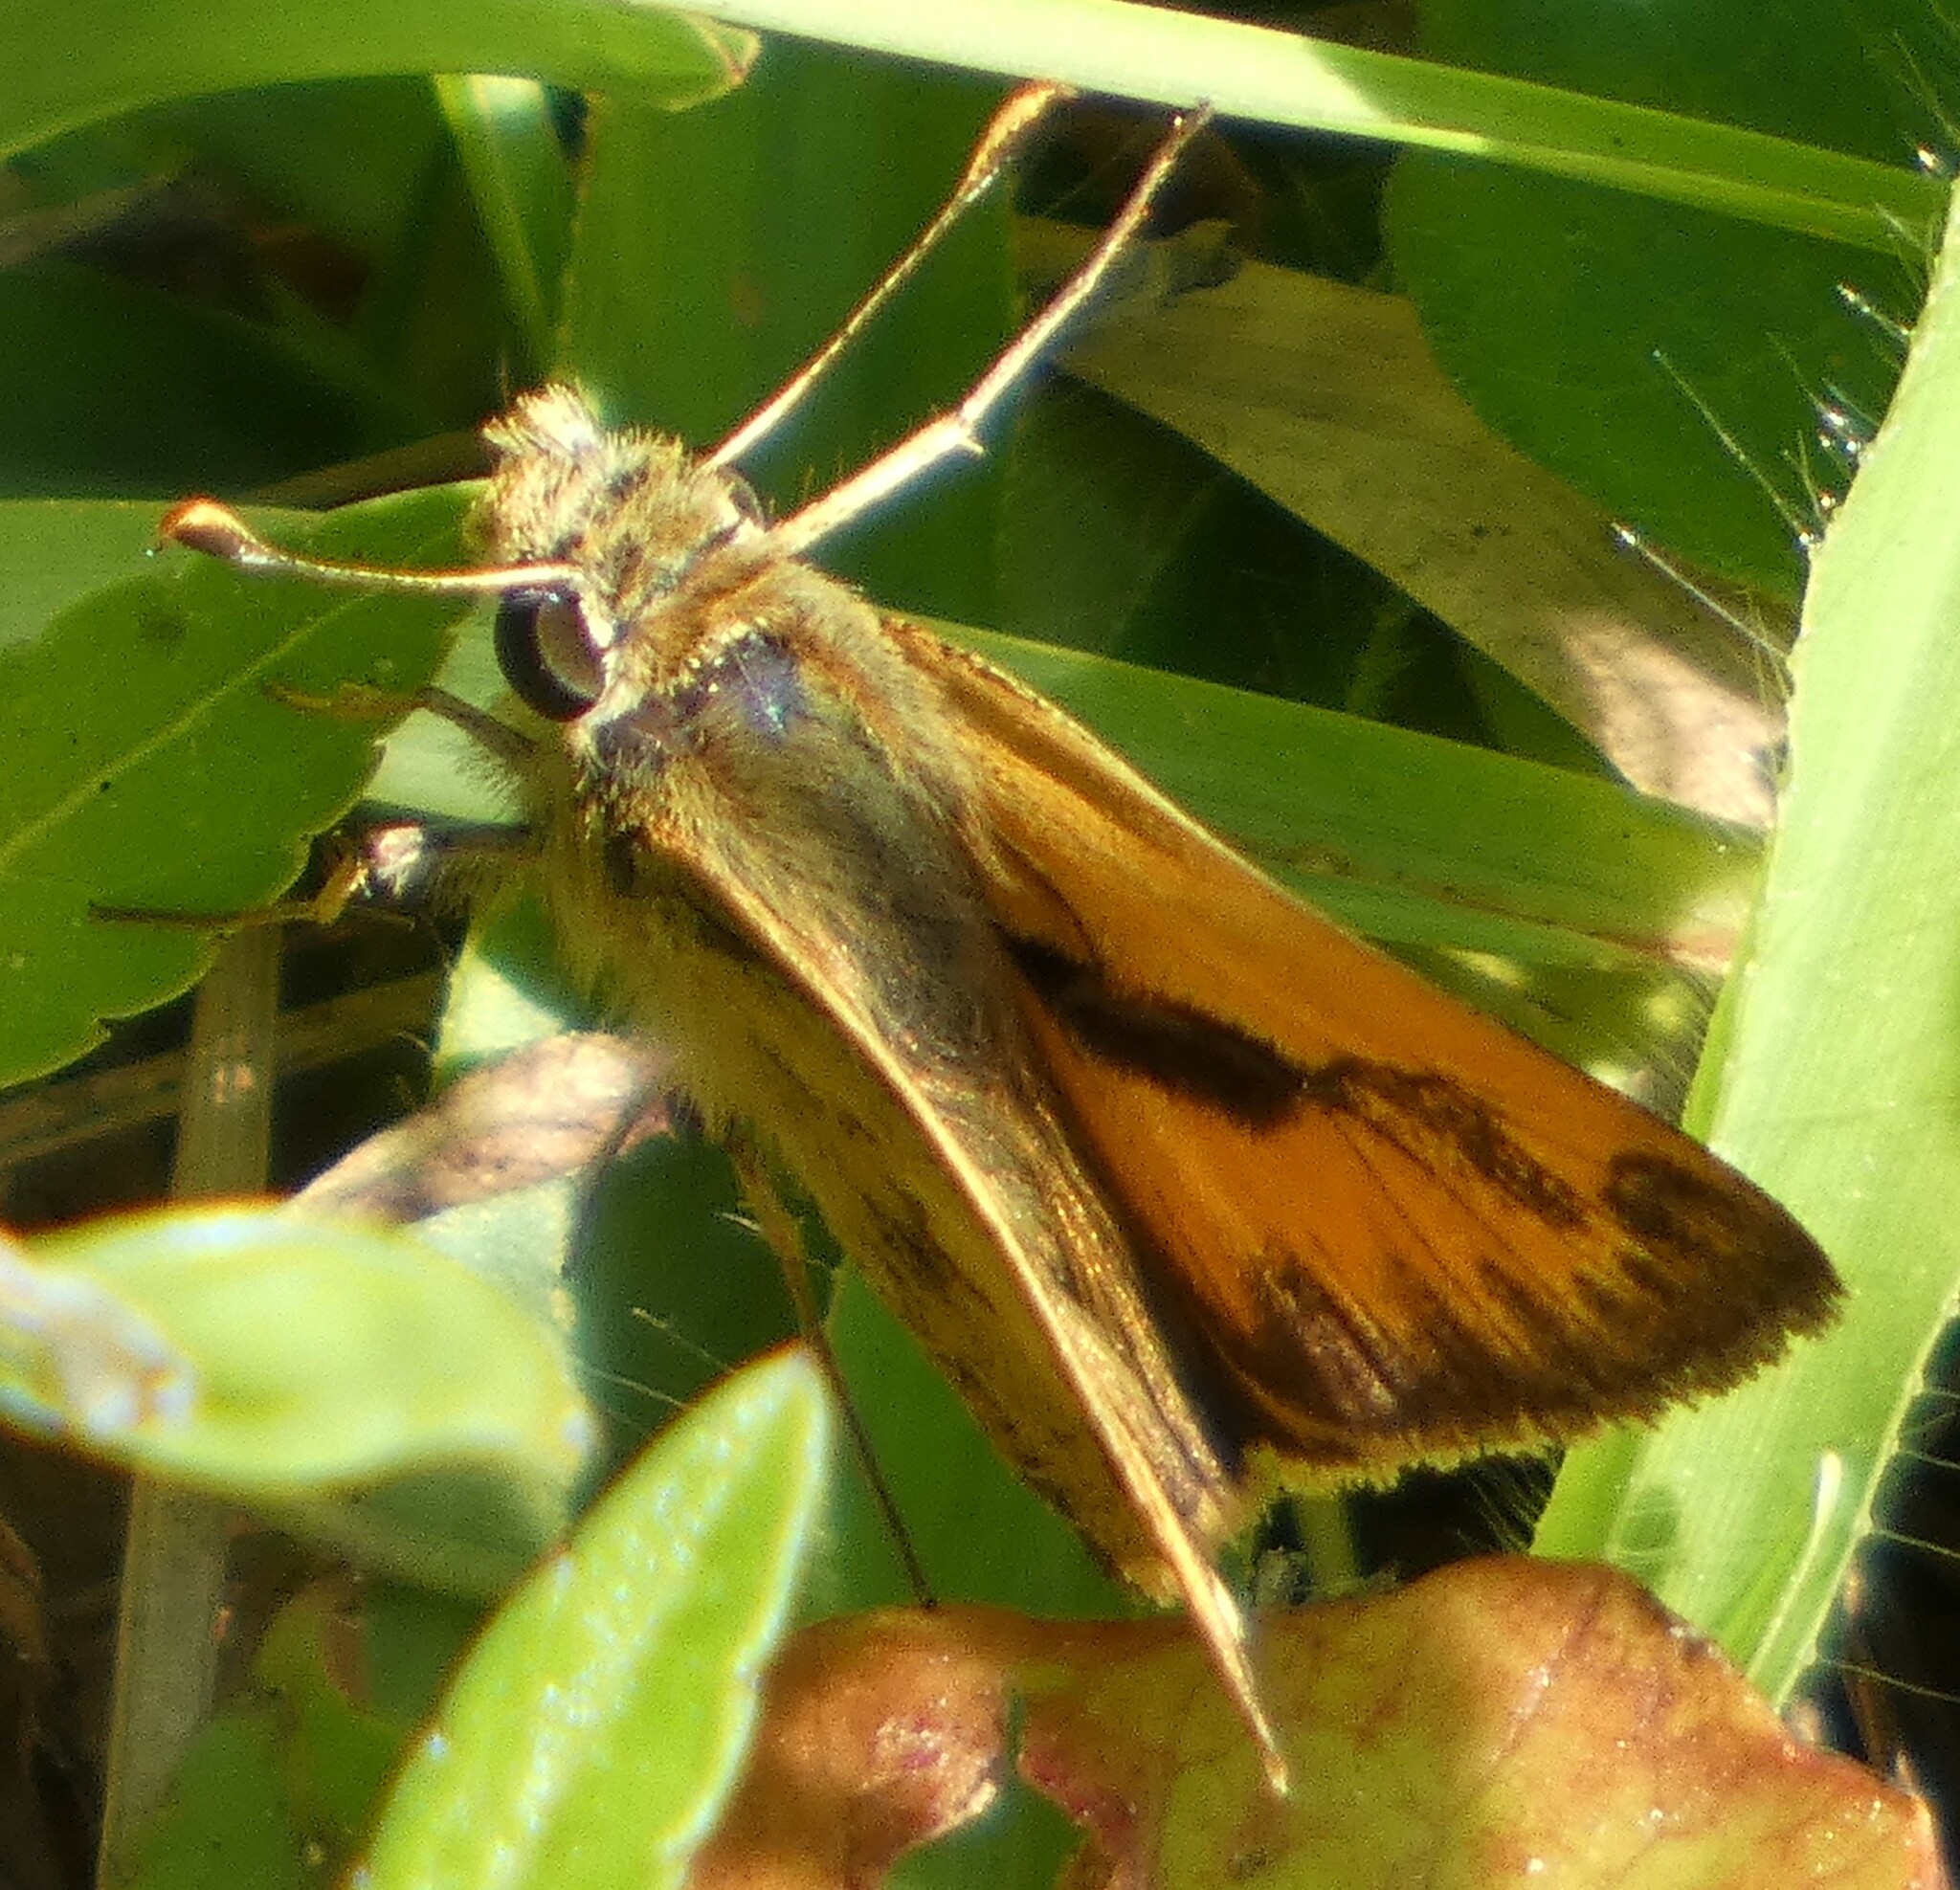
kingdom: Animalia
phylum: Arthropoda
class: Insecta
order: Lepidoptera
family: Hesperiidae
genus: Polites
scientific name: Polites vibex
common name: Whirlabout
